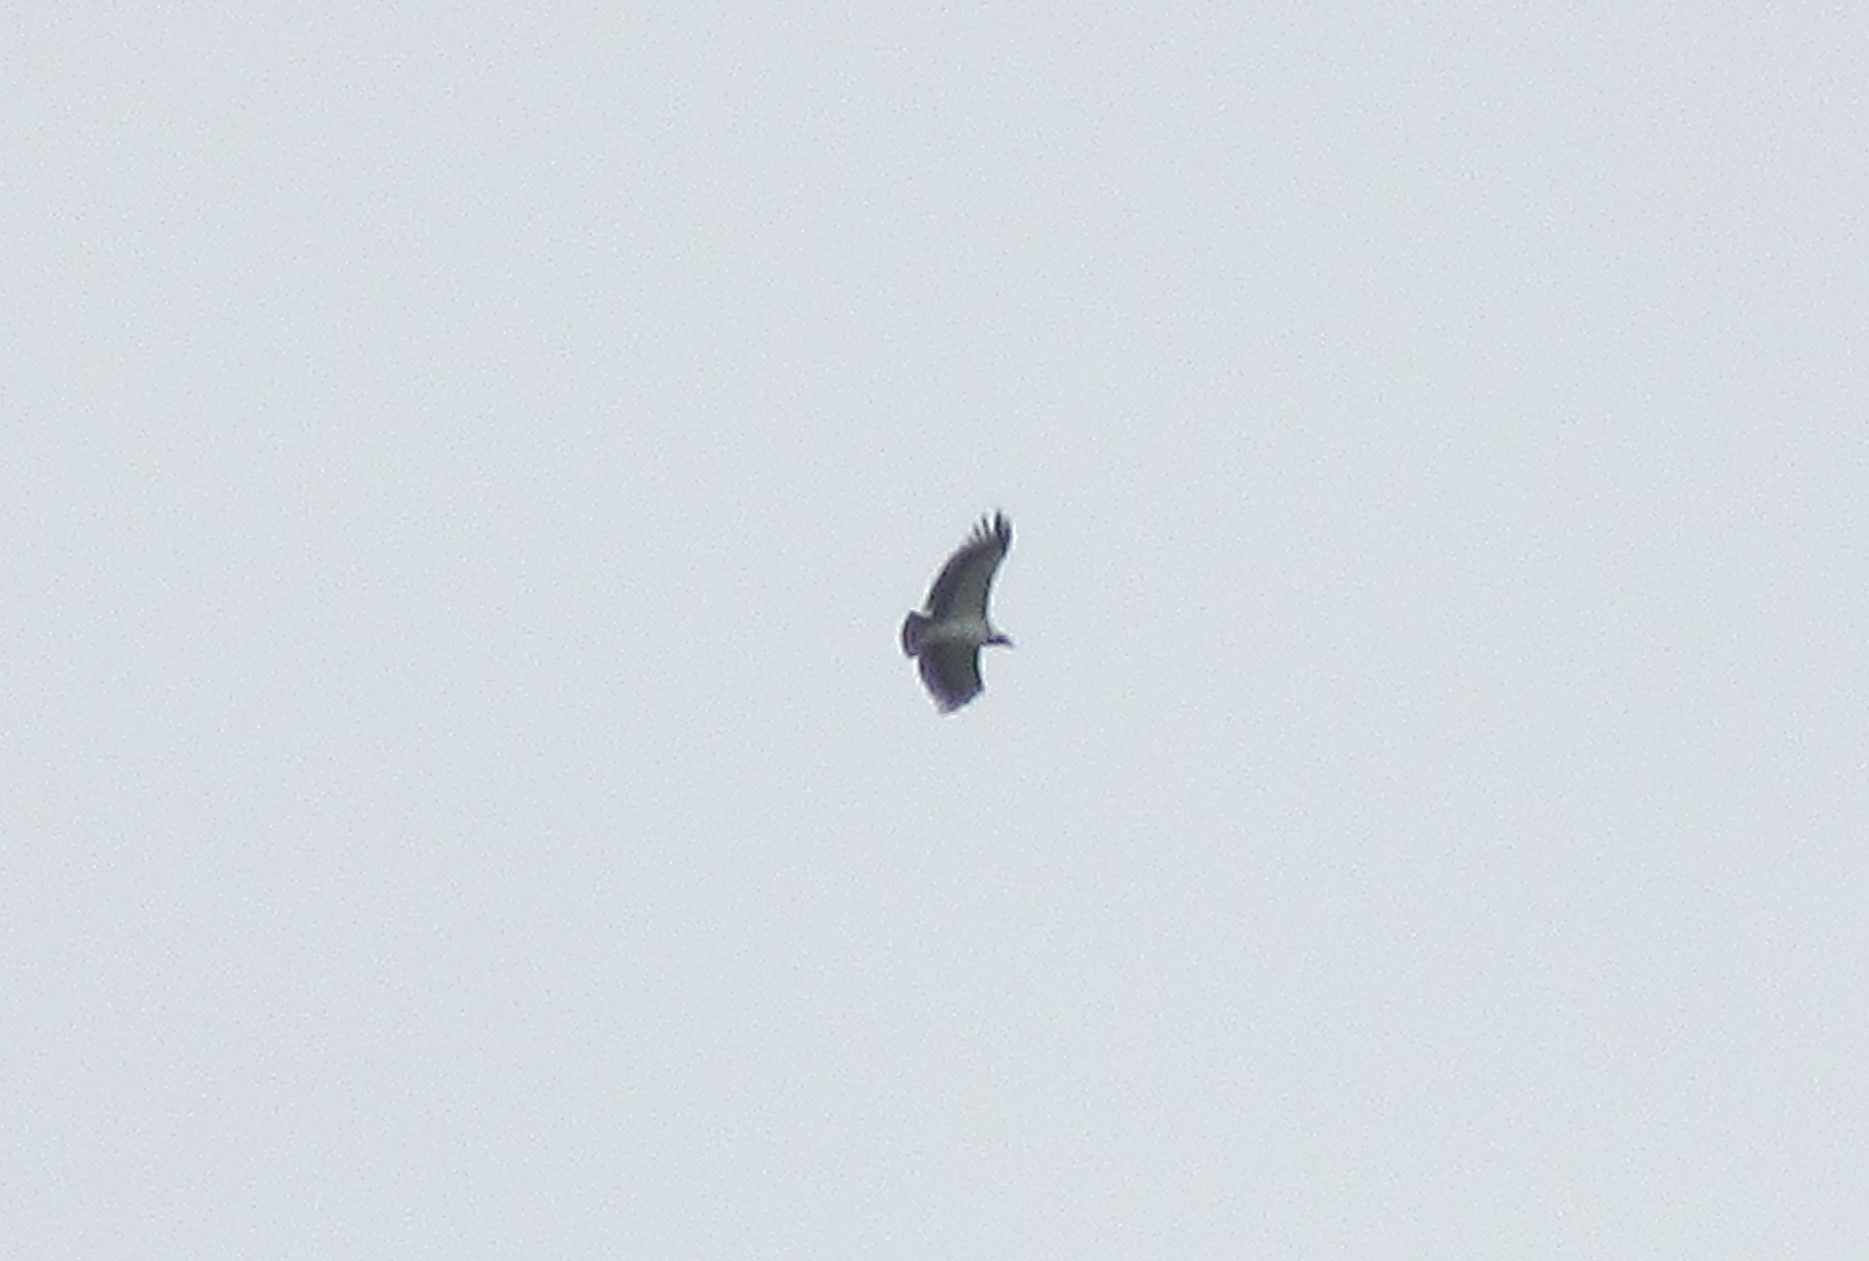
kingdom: Animalia
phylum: Chordata
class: Aves
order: Accipitriformes
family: Cathartidae
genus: Sarcoramphus
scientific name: Sarcoramphus papa
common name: King vulture
